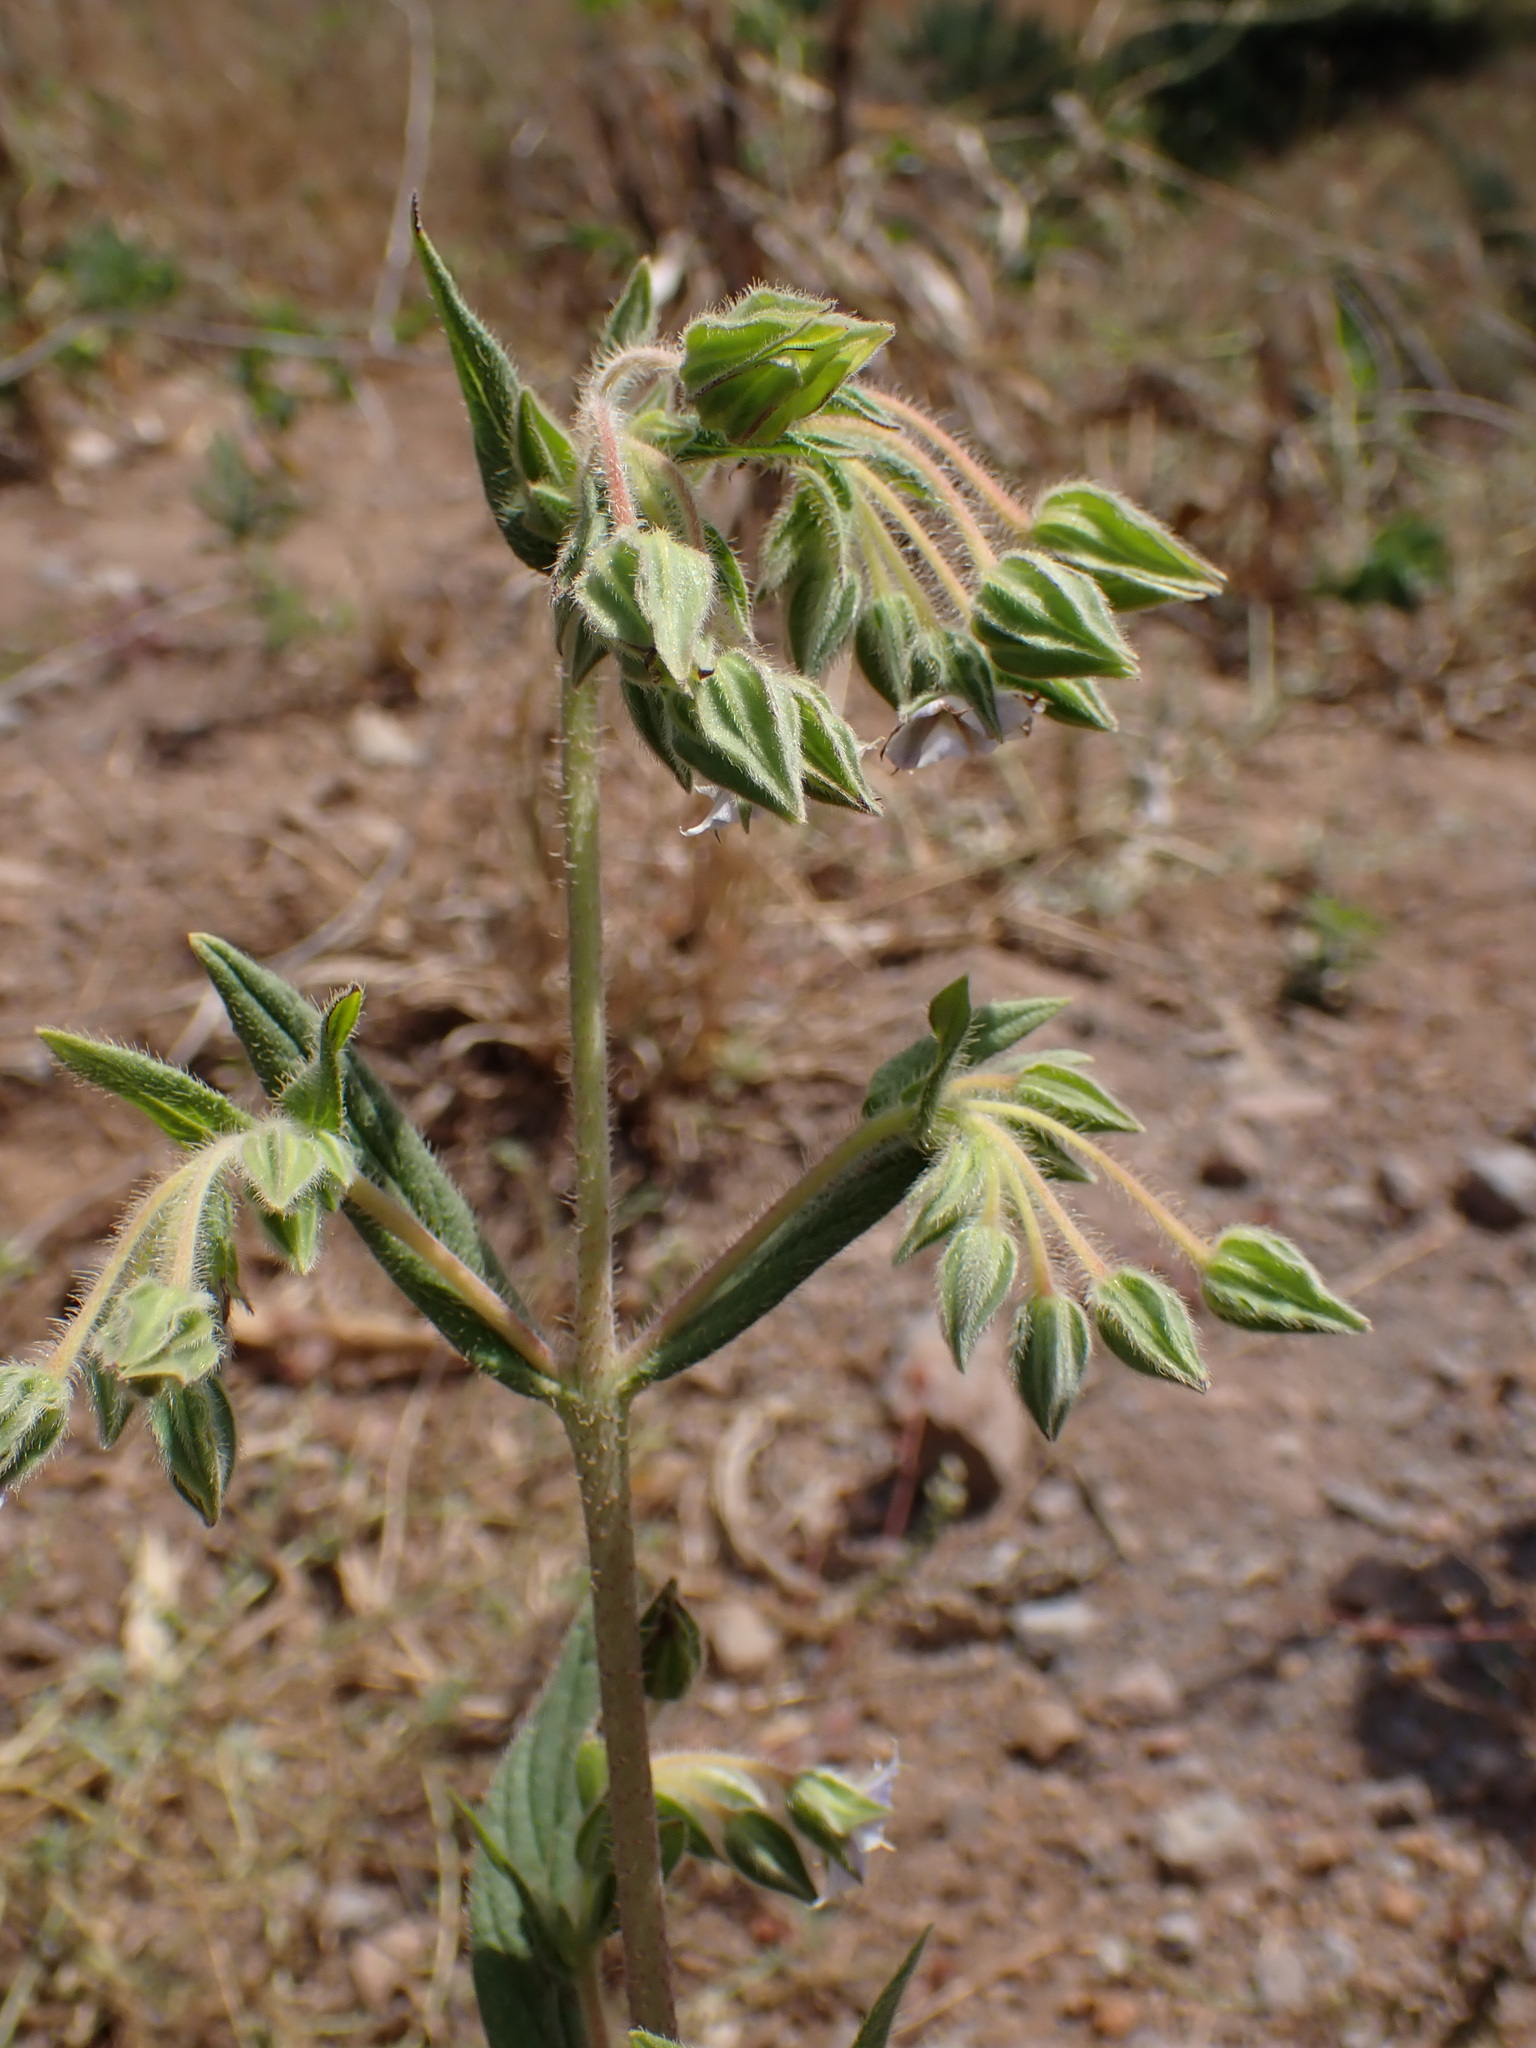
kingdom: Plantae
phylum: Tracheophyta
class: Magnoliopsida
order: Boraginales
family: Boraginaceae
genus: Trichodesma
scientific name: Trichodesma indicum
